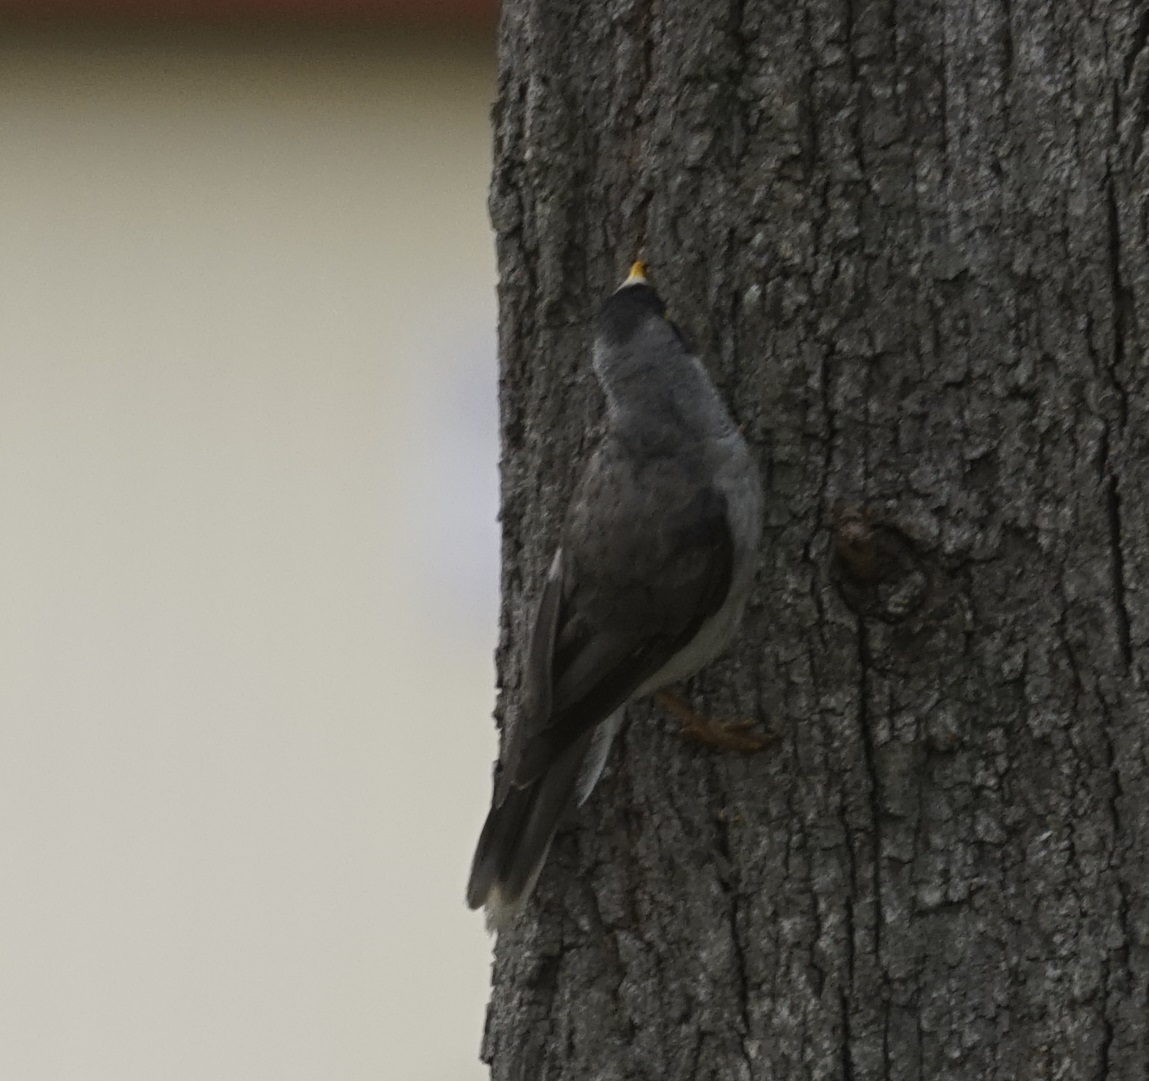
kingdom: Animalia
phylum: Chordata
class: Aves
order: Passeriformes
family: Meliphagidae
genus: Manorina
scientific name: Manorina melanocephala
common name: Noisy miner
